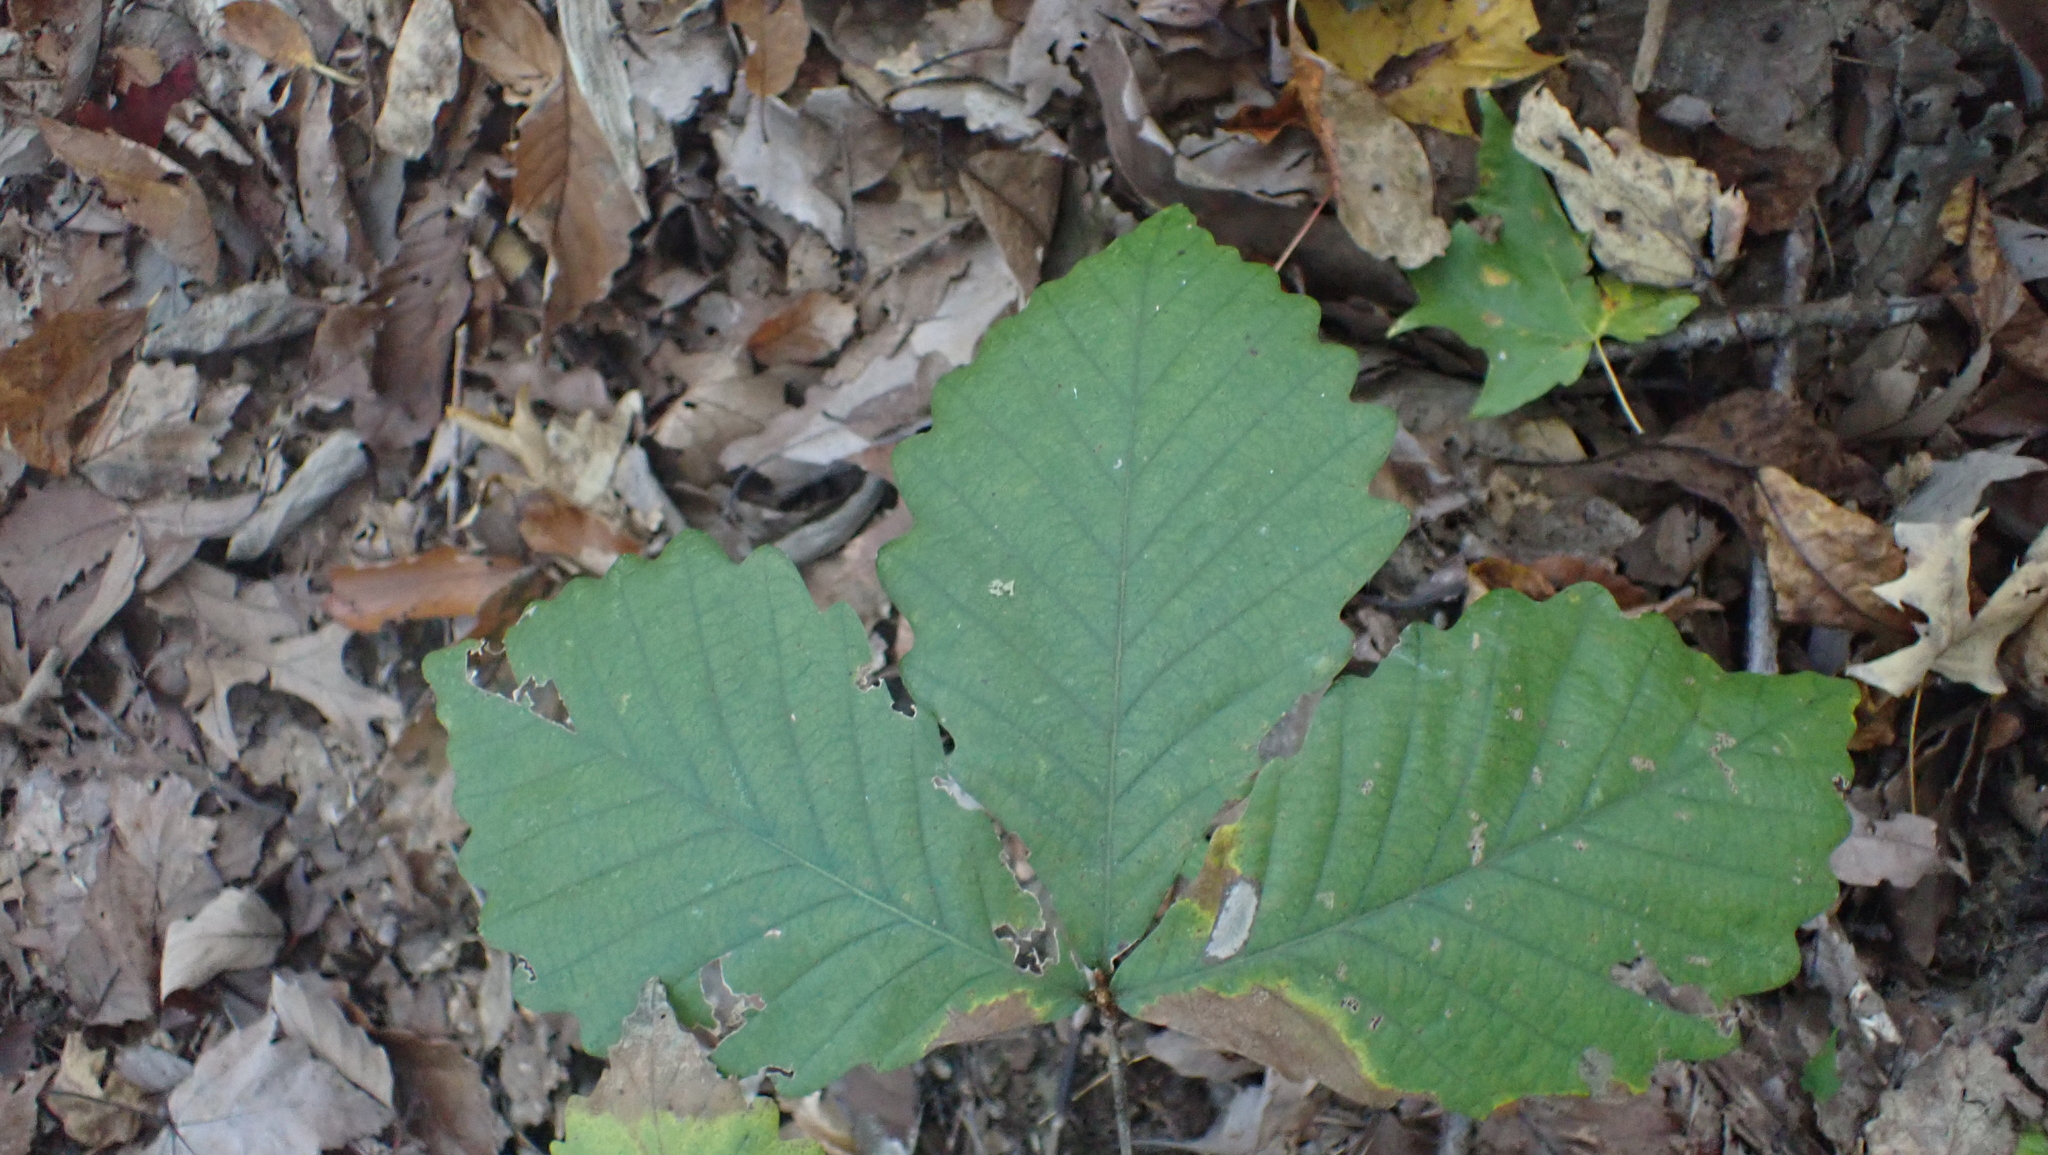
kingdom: Plantae
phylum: Tracheophyta
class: Magnoliopsida
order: Fagales
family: Fagaceae
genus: Quercus
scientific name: Quercus montana
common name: Chestnut oak
